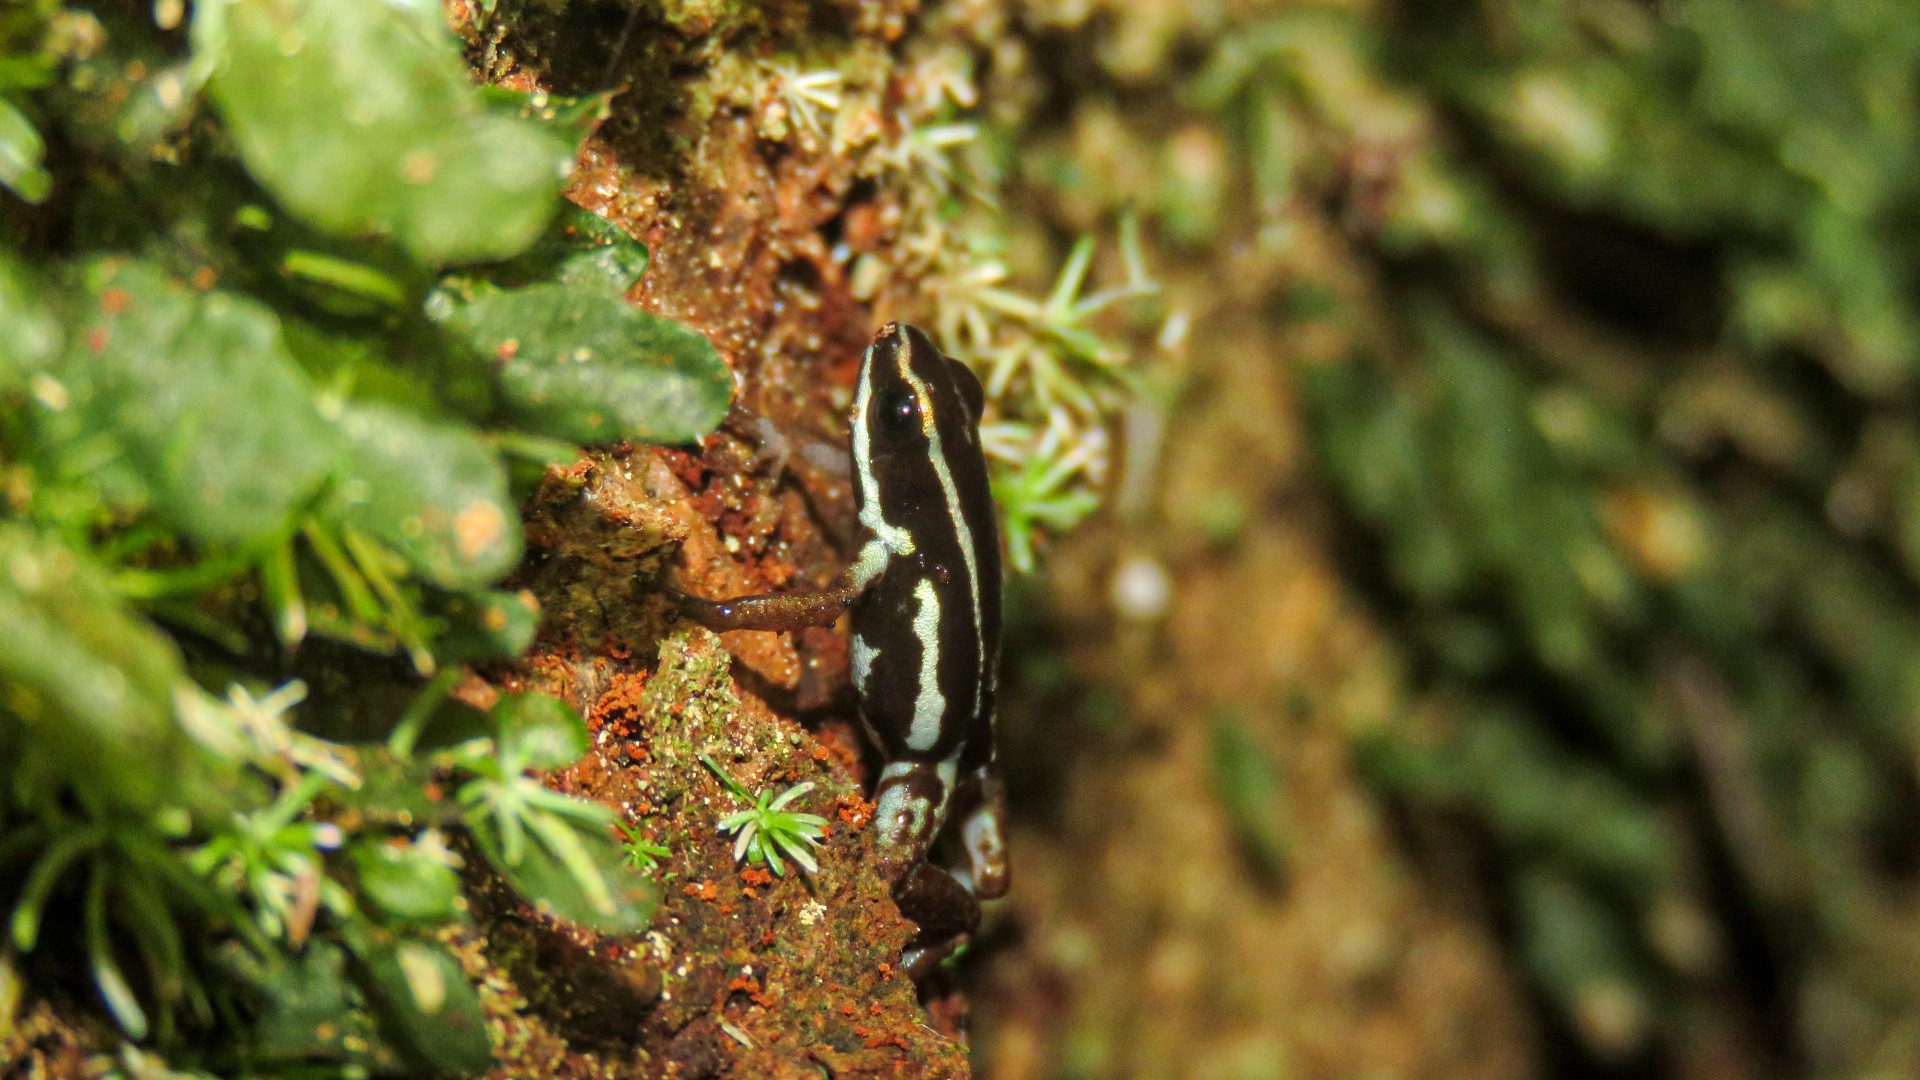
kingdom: Animalia
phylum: Chordata
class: Amphibia
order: Anura
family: Dendrobatidae
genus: Andinobates
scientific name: Andinobates claudiae
